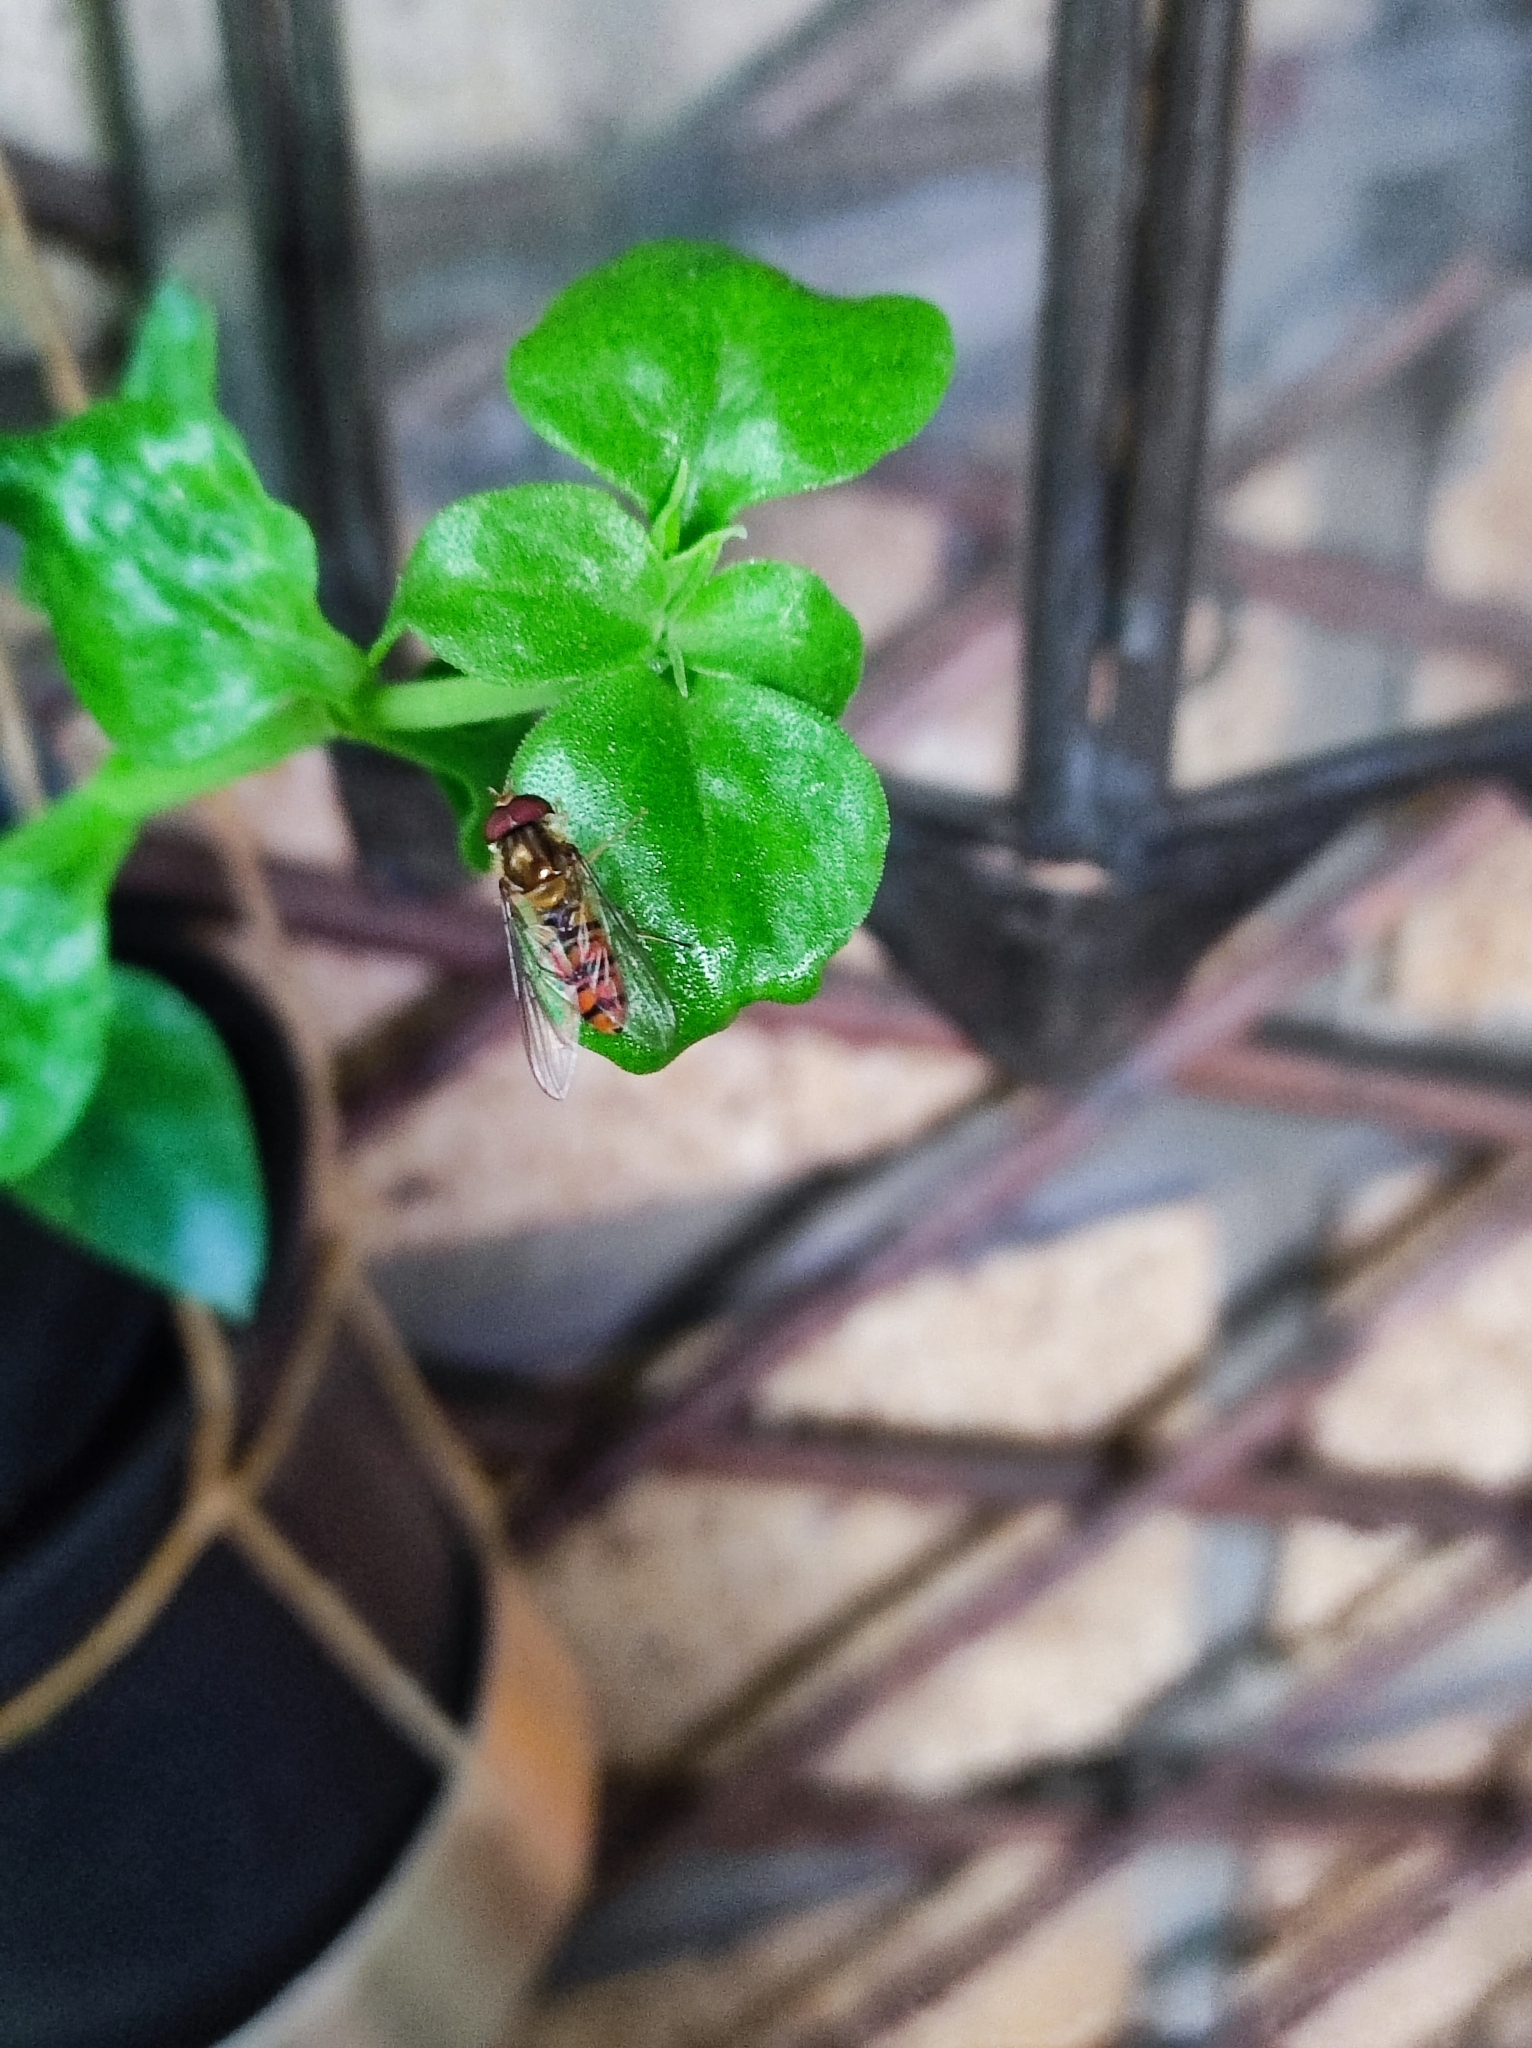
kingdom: Animalia
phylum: Arthropoda
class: Insecta
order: Diptera
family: Syrphidae
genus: Episyrphus
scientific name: Episyrphus balteatus
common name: Marmalade hoverfly
